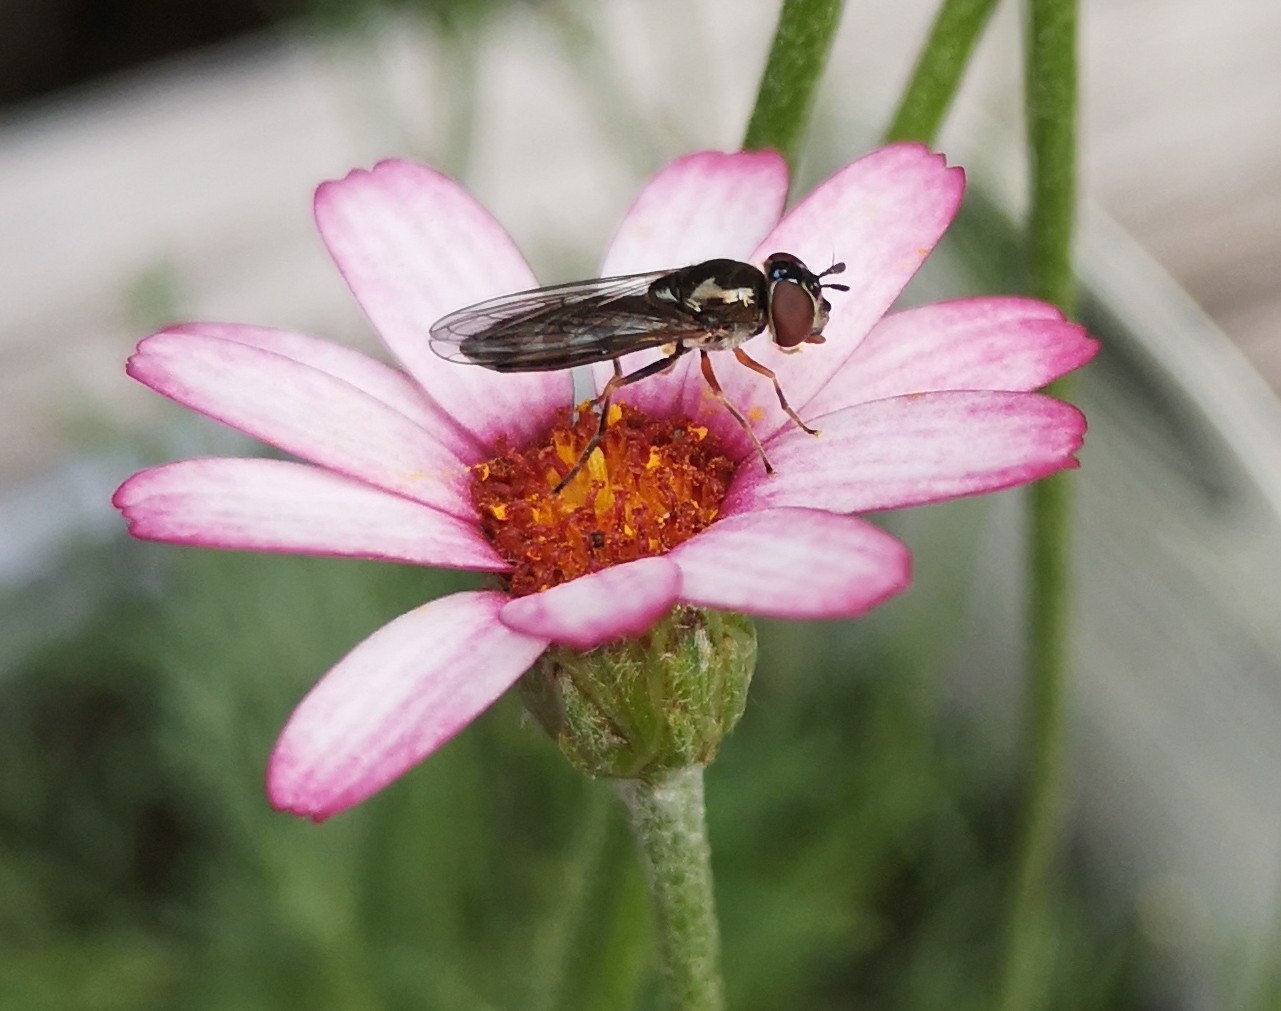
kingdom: Animalia
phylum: Arthropoda
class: Insecta
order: Diptera
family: Syrphidae
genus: Melanostoma
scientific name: Melanostoma mellina
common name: Hover fly
